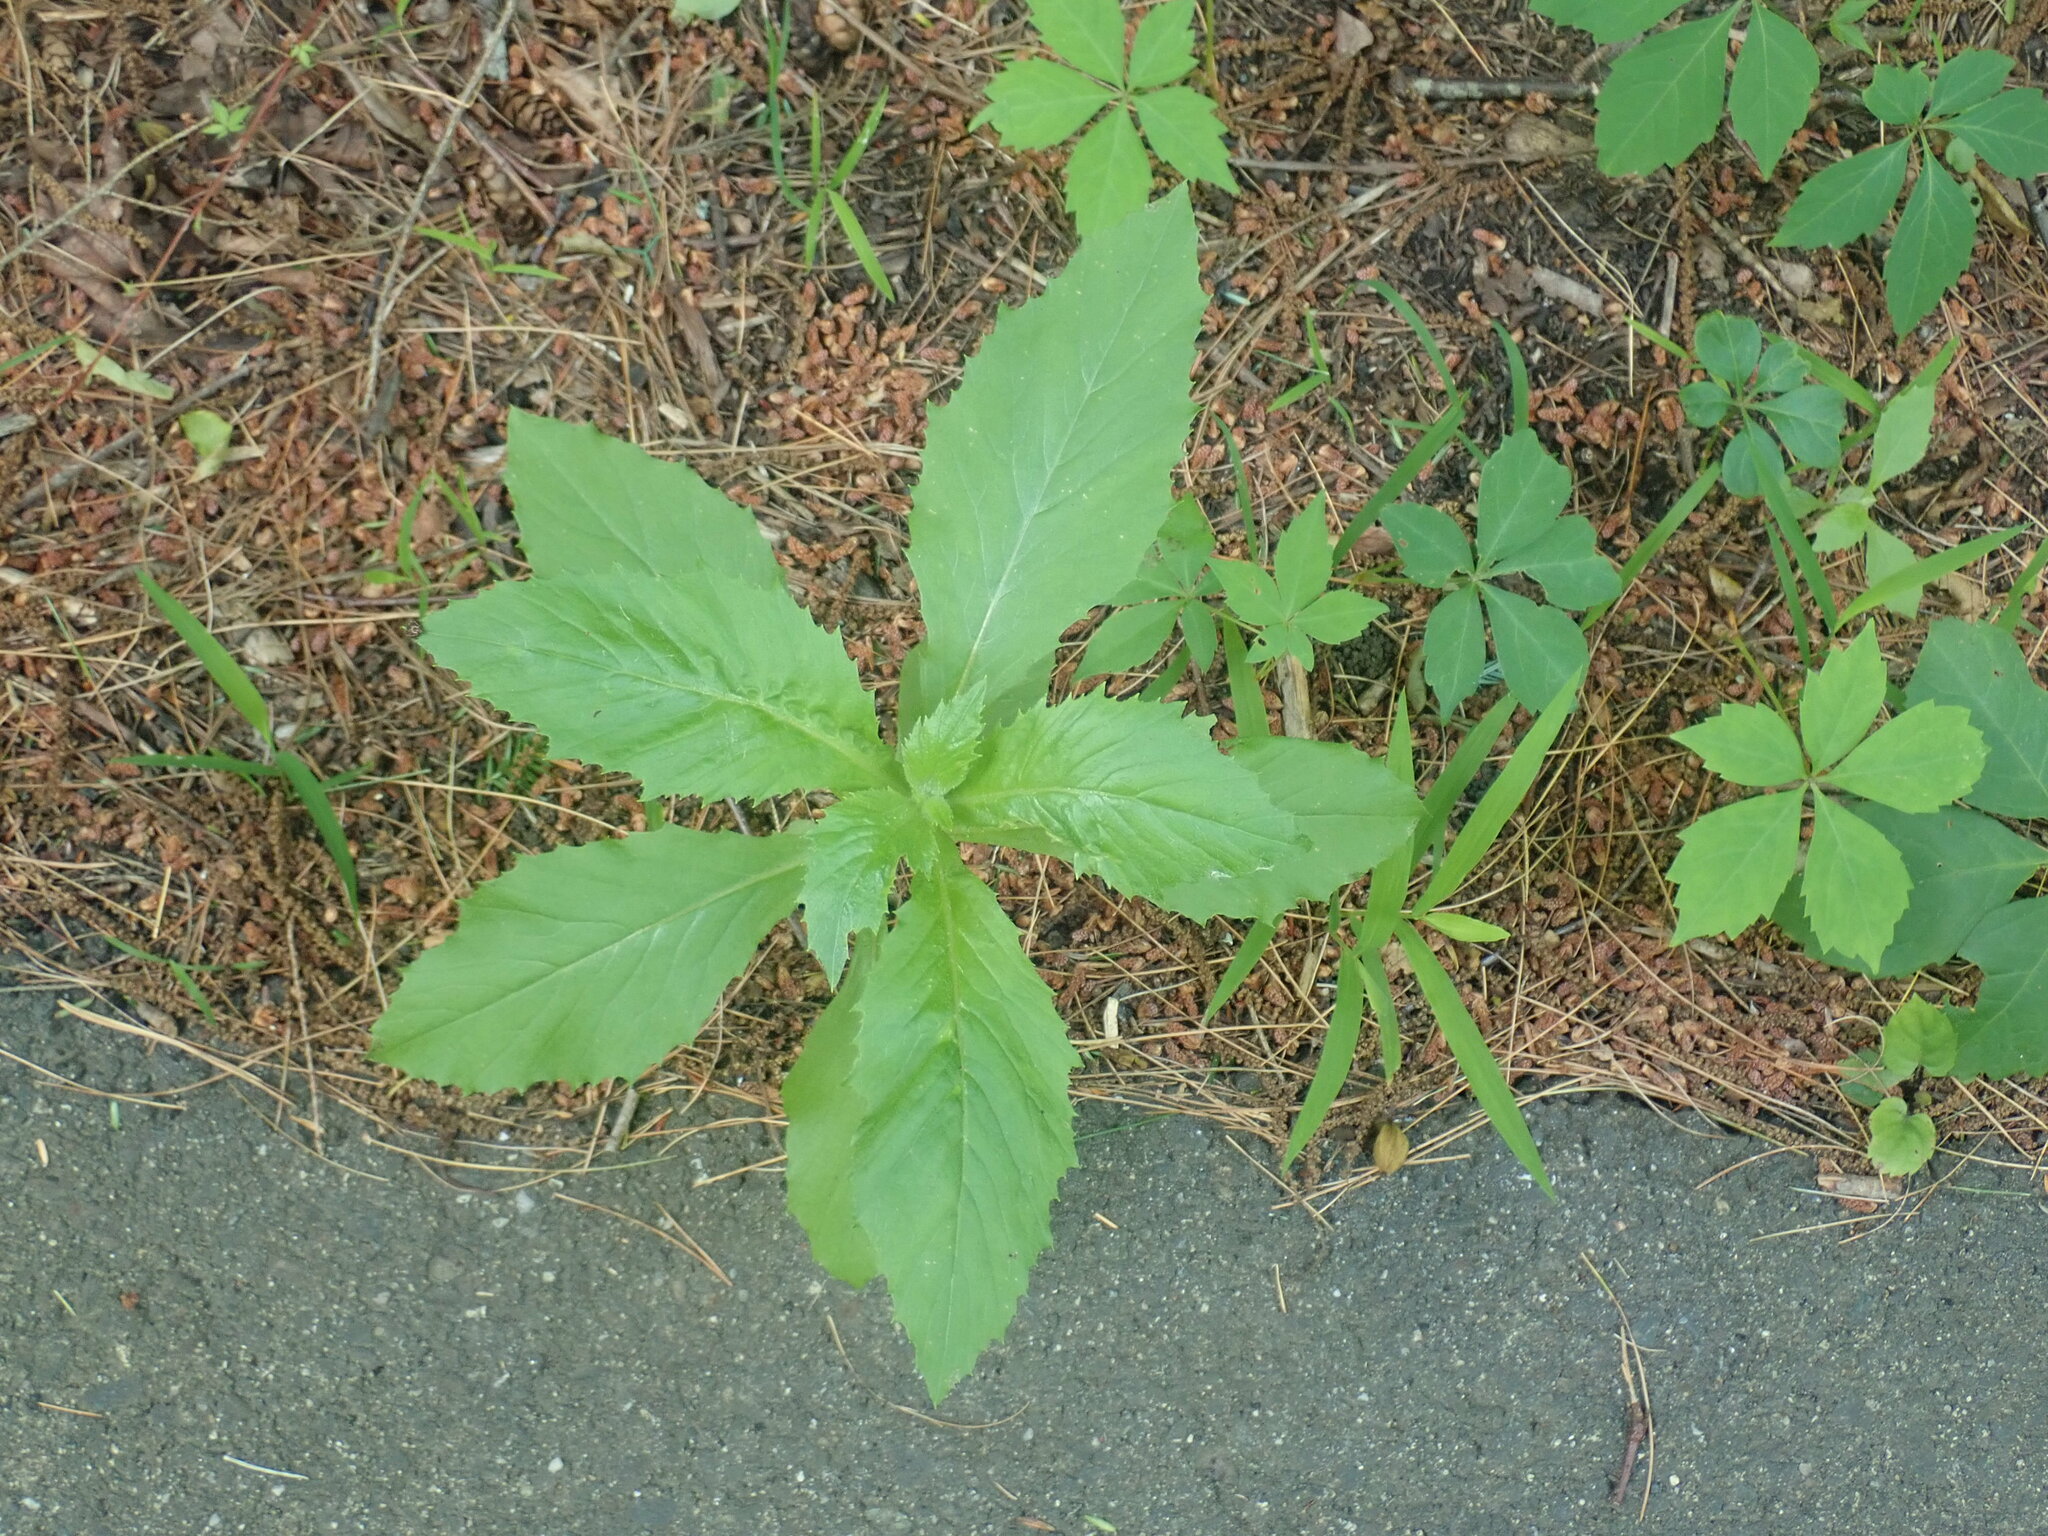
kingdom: Plantae
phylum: Tracheophyta
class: Magnoliopsida
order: Asterales
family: Asteraceae
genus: Erechtites
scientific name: Erechtites hieraciifolius
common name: American burnweed
